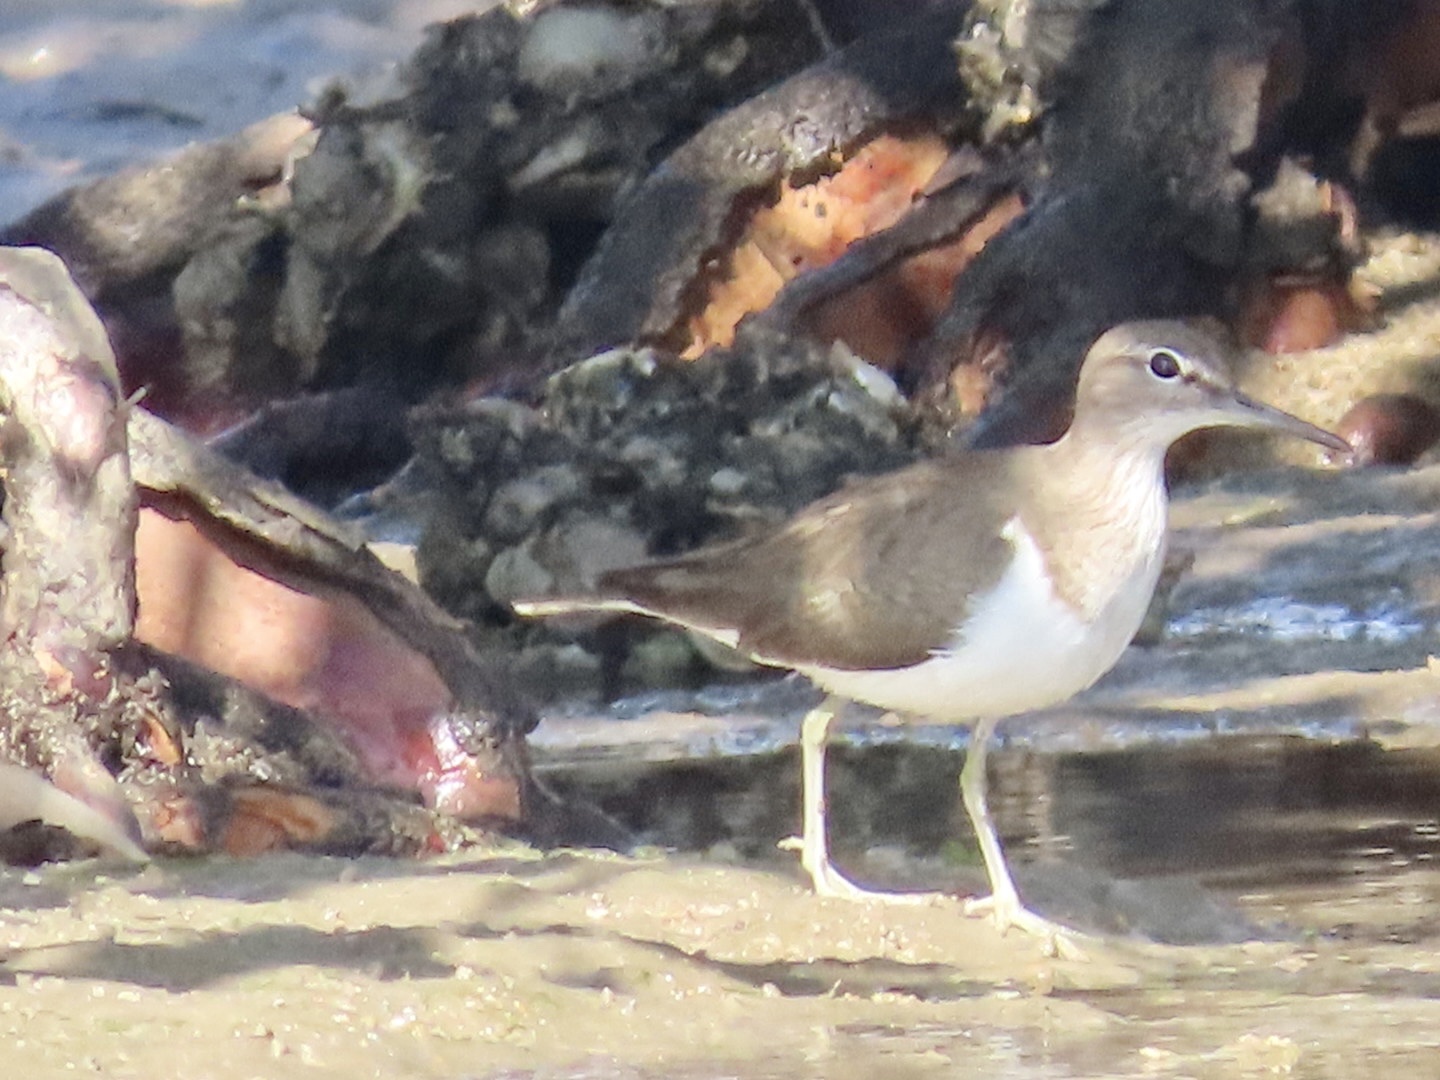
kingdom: Animalia
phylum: Chordata
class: Aves
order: Charadriiformes
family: Scolopacidae
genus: Actitis
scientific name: Actitis hypoleucos
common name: Common sandpiper
